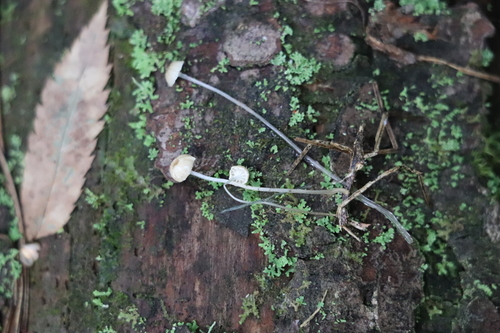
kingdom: Fungi
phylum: Basidiomycota
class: Agaricomycetes
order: Agaricales
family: Mycenaceae
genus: Roridomyces
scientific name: Roridomyces roridus
